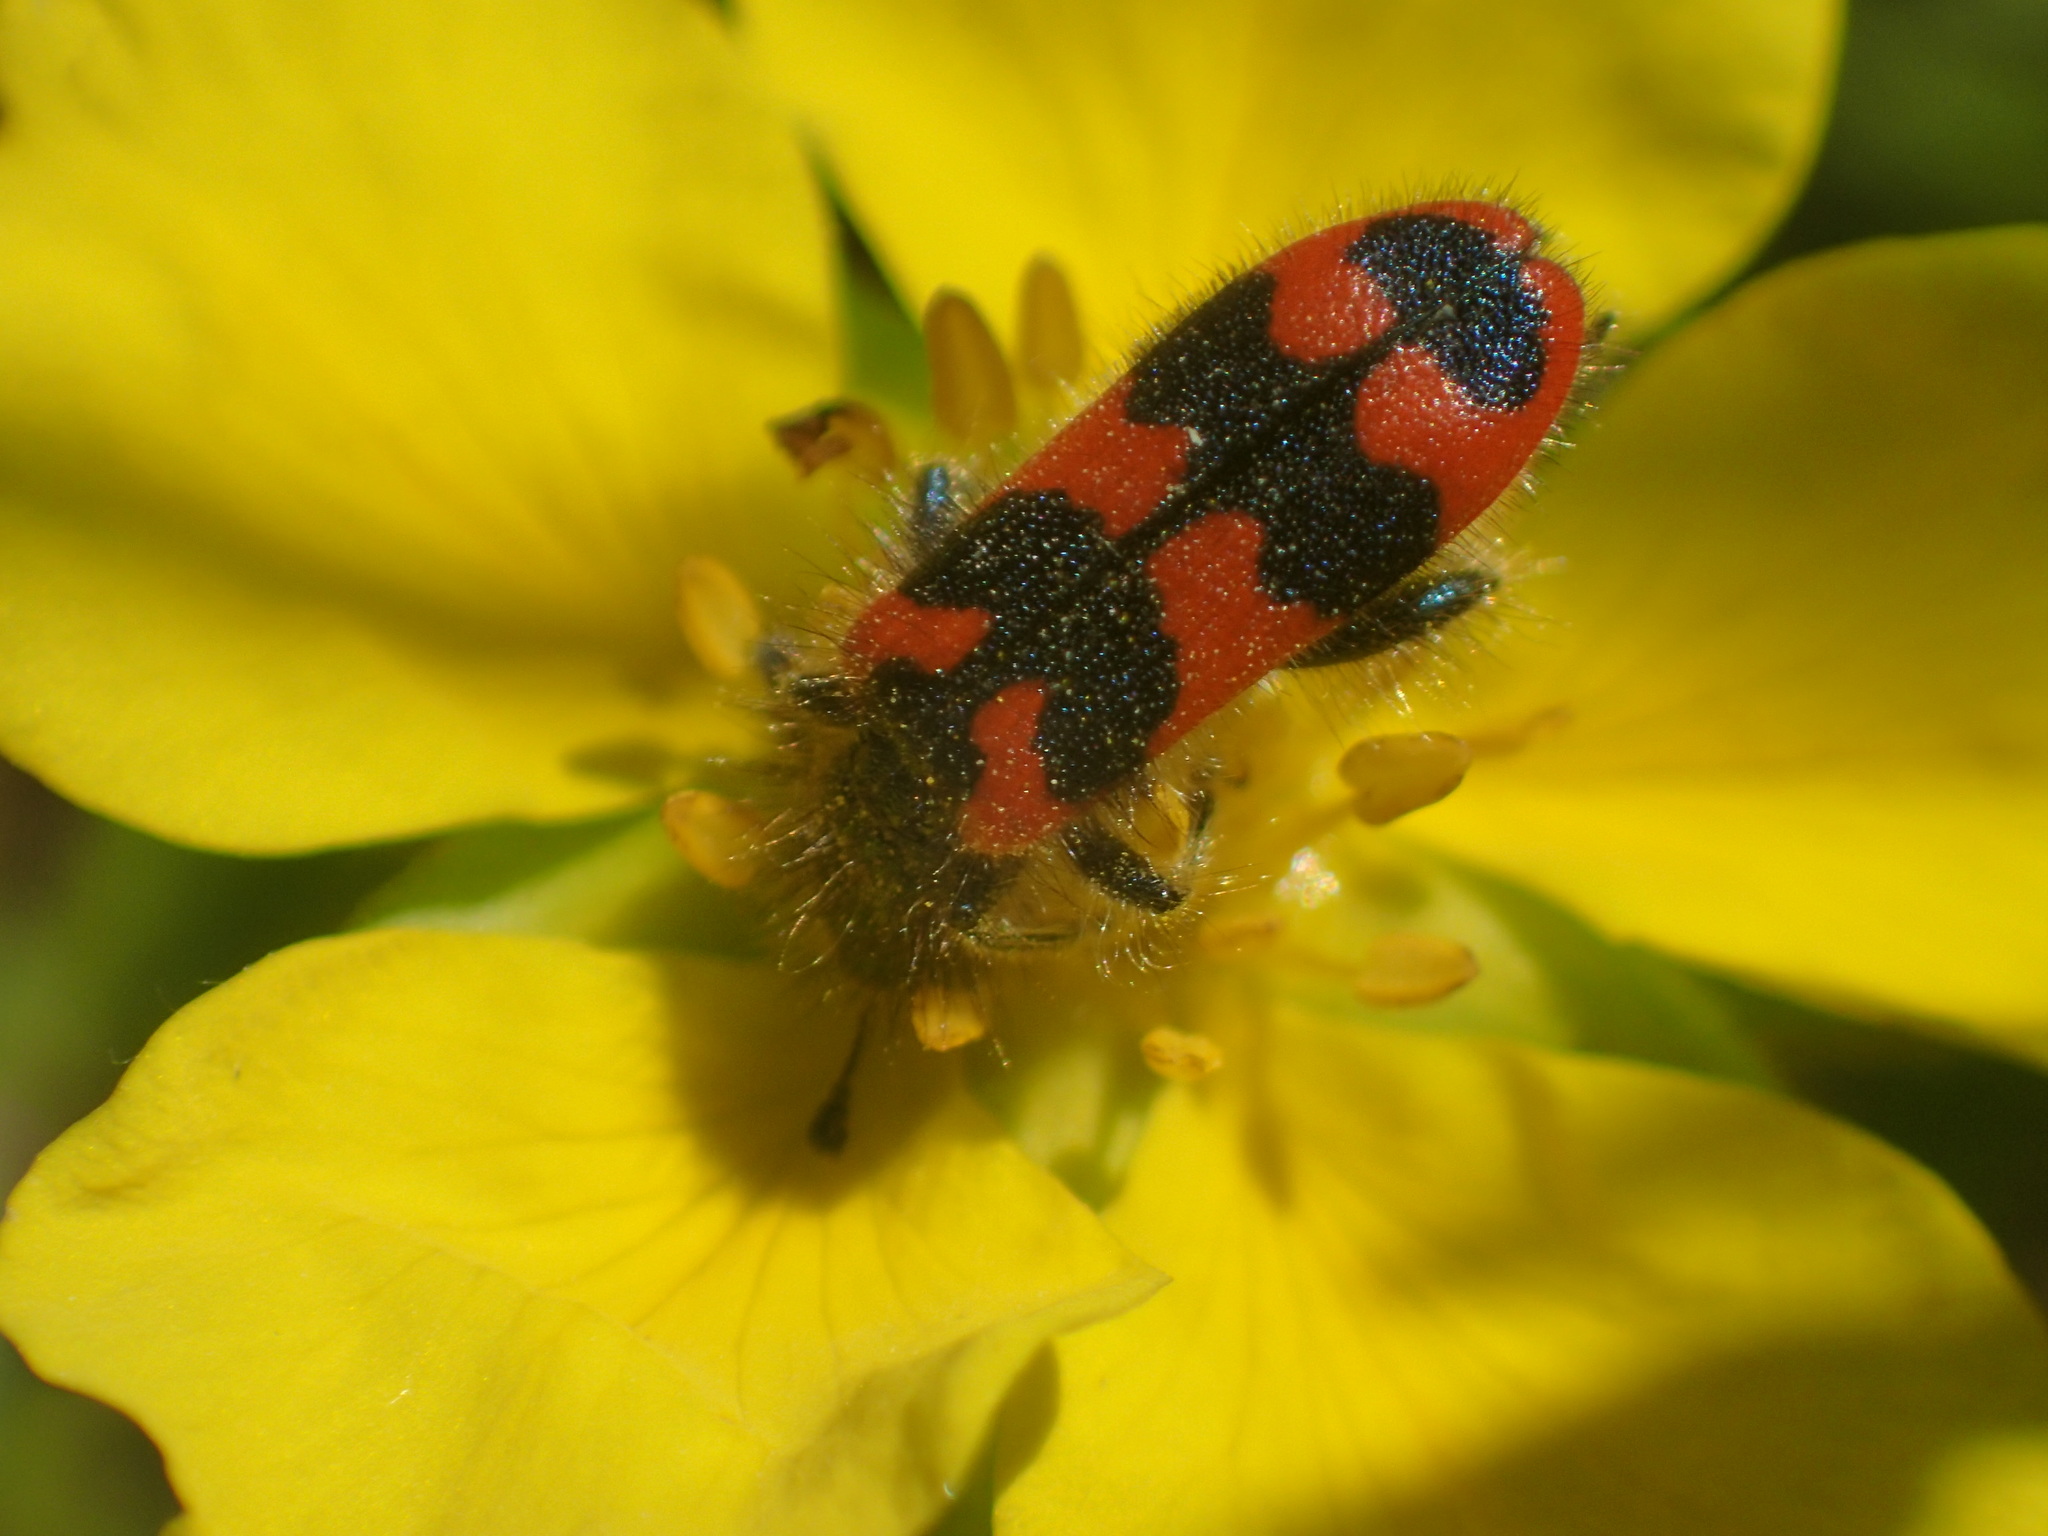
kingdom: Animalia
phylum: Arthropoda
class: Insecta
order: Coleoptera
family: Cleridae
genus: Trichodes
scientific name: Trichodes alvearius
